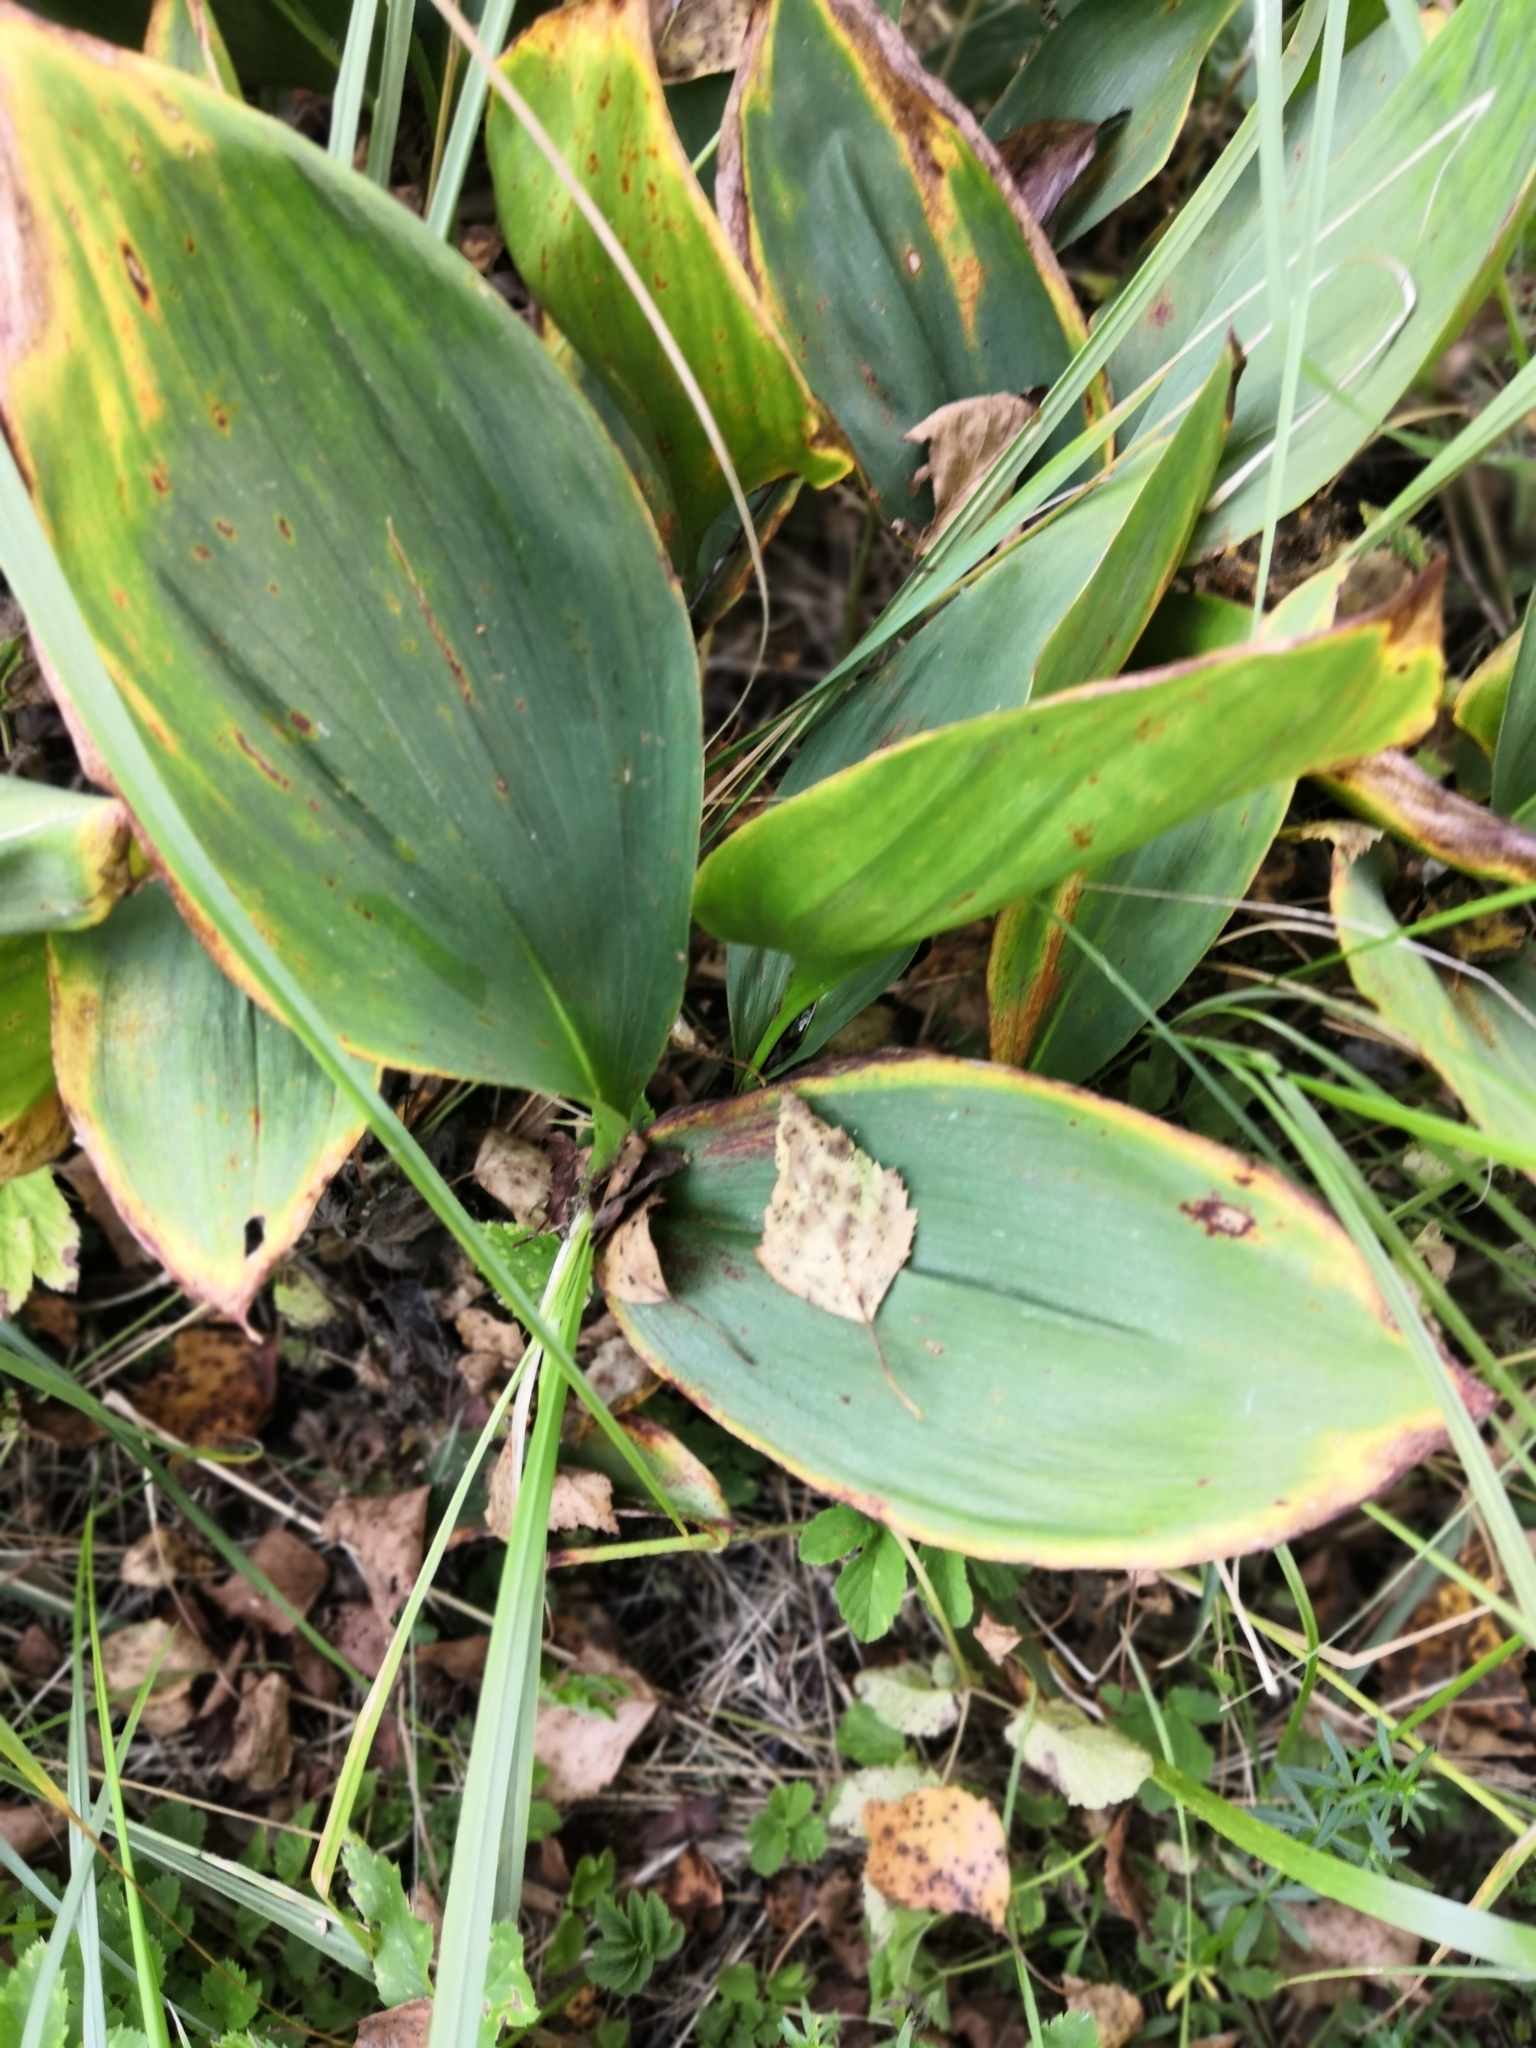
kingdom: Plantae
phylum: Tracheophyta
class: Liliopsida
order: Asparagales
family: Asparagaceae
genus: Convallaria
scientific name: Convallaria majalis
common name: Lily-of-the-valley
